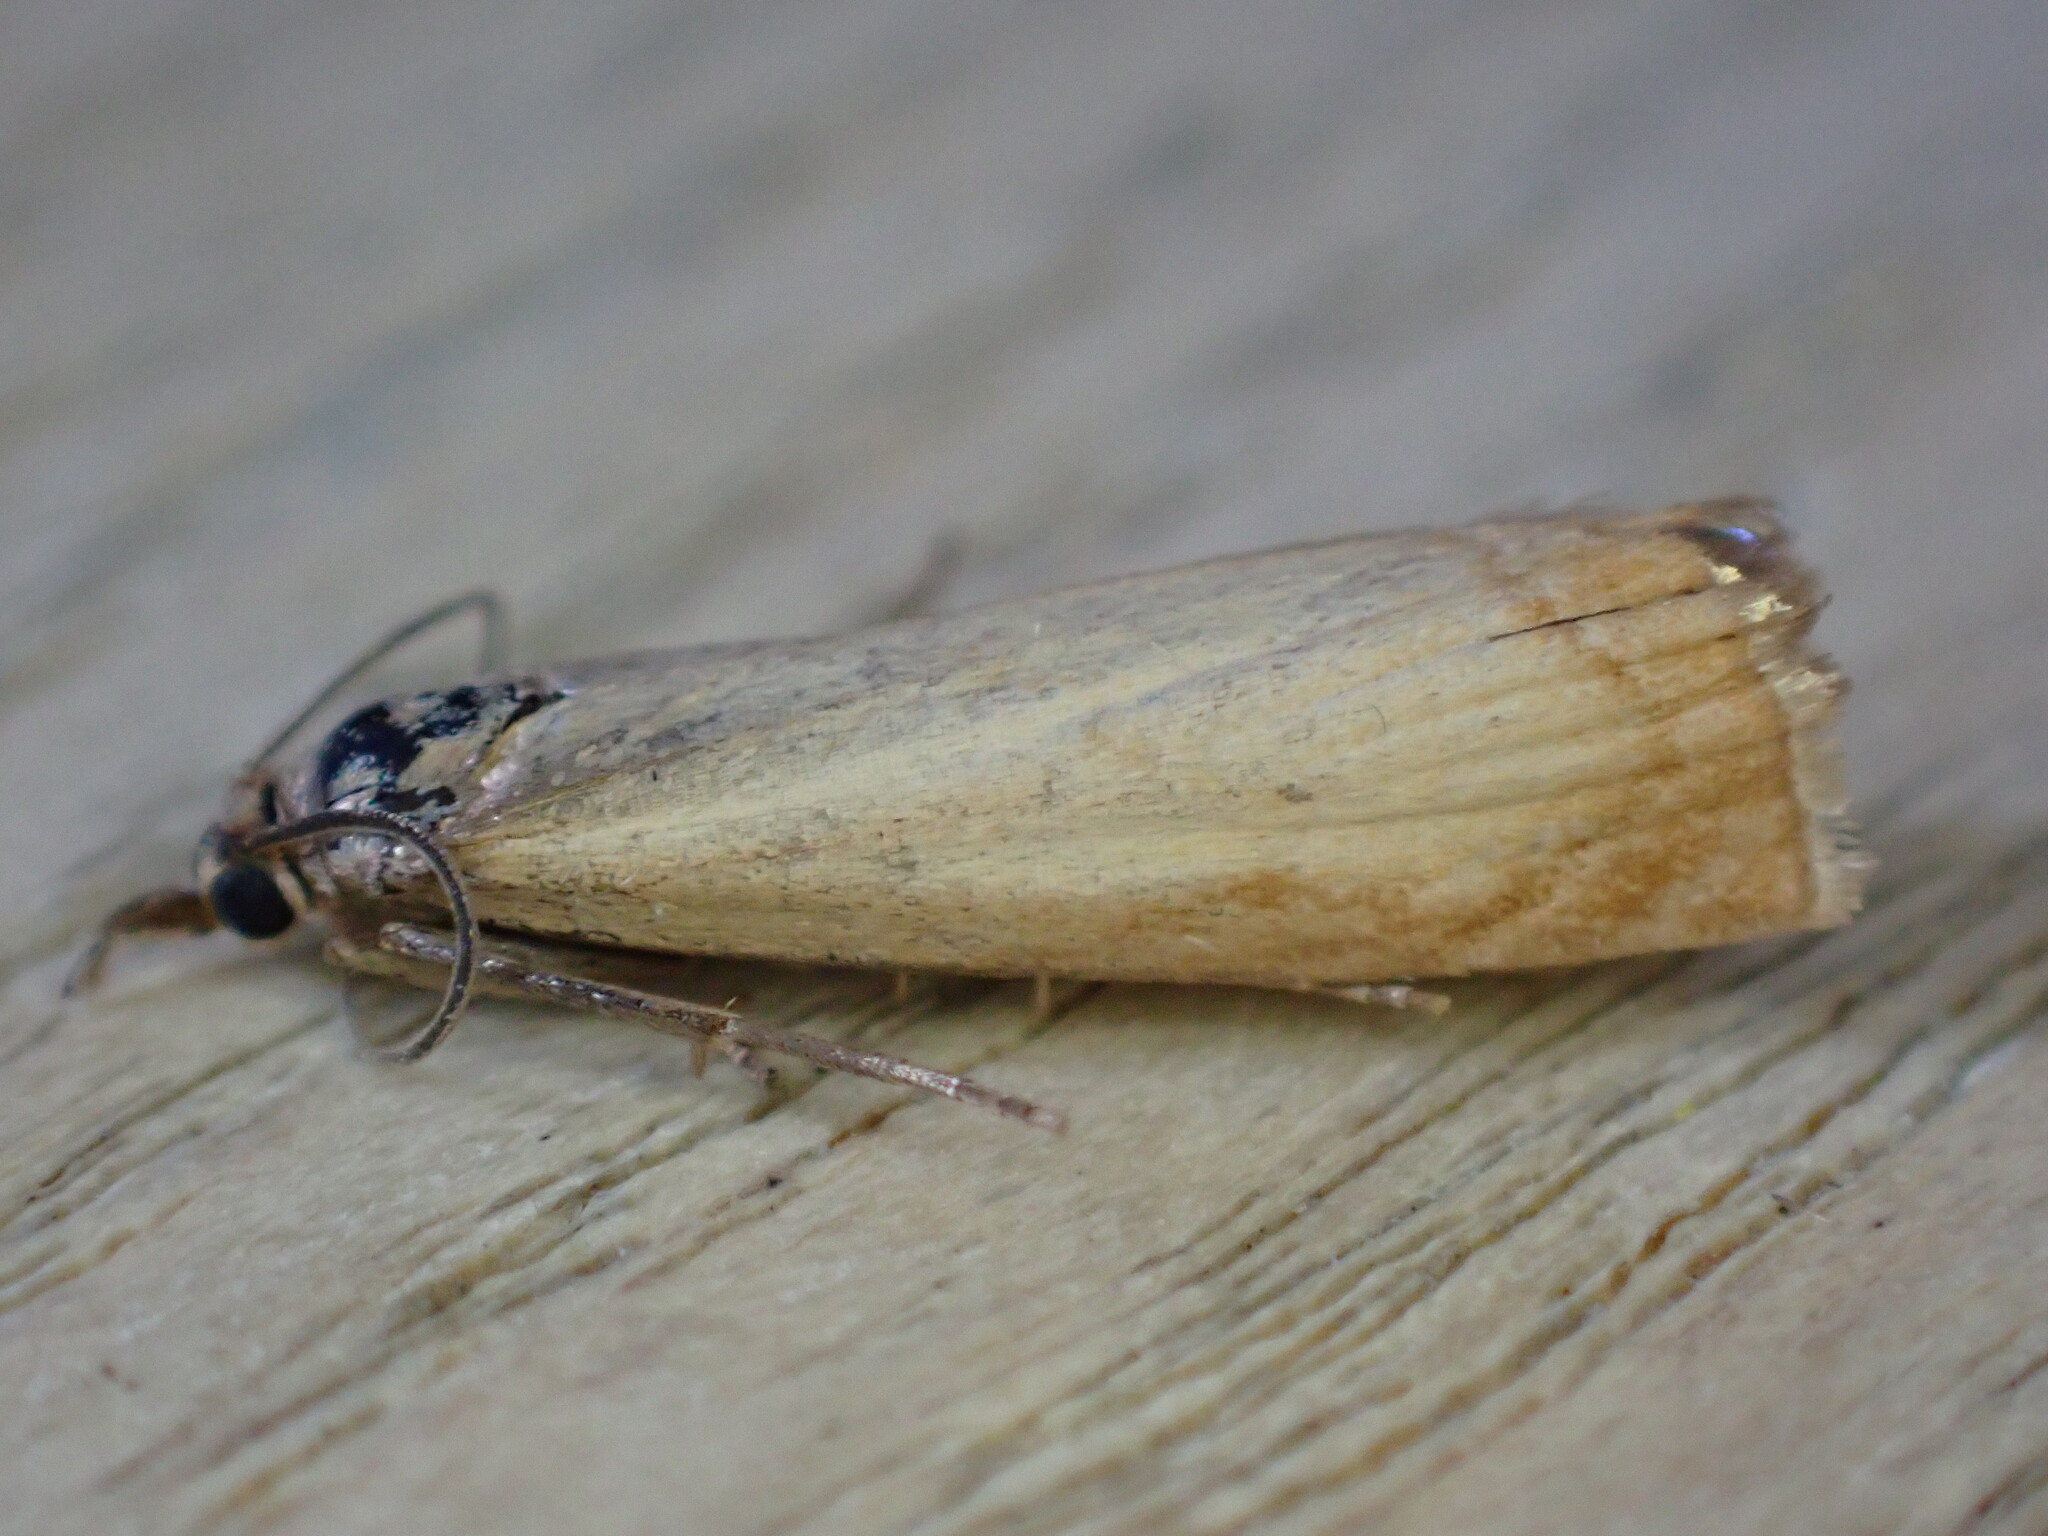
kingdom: Animalia
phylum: Arthropoda
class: Insecta
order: Lepidoptera
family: Crambidae
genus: Chrysoteuchia
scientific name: Chrysoteuchia culmella
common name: Garden grass-veneer
